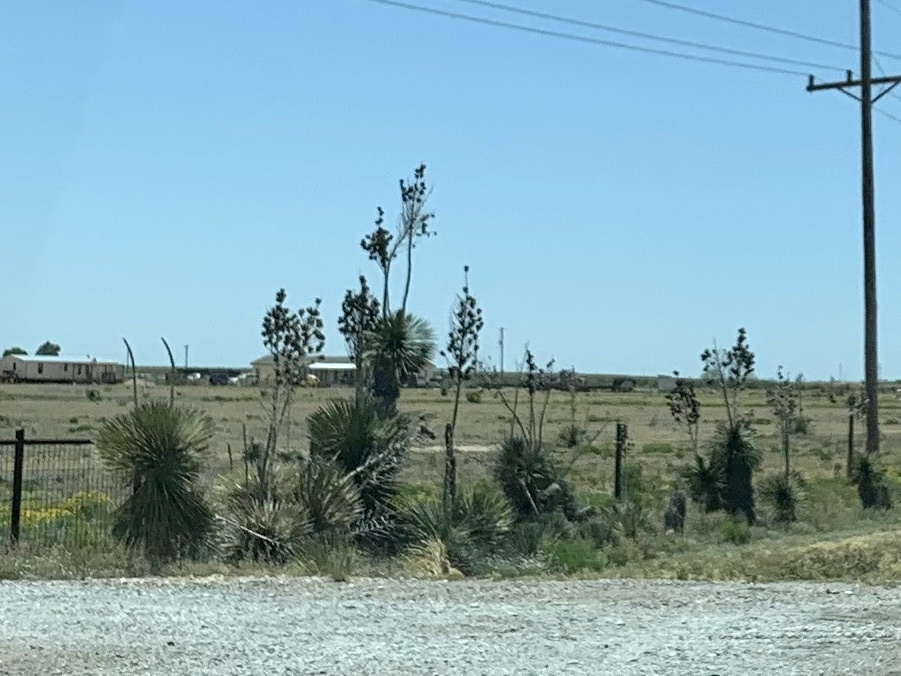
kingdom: Plantae
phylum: Tracheophyta
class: Liliopsida
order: Asparagales
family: Asparagaceae
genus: Yucca
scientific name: Yucca elata
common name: Palmella
